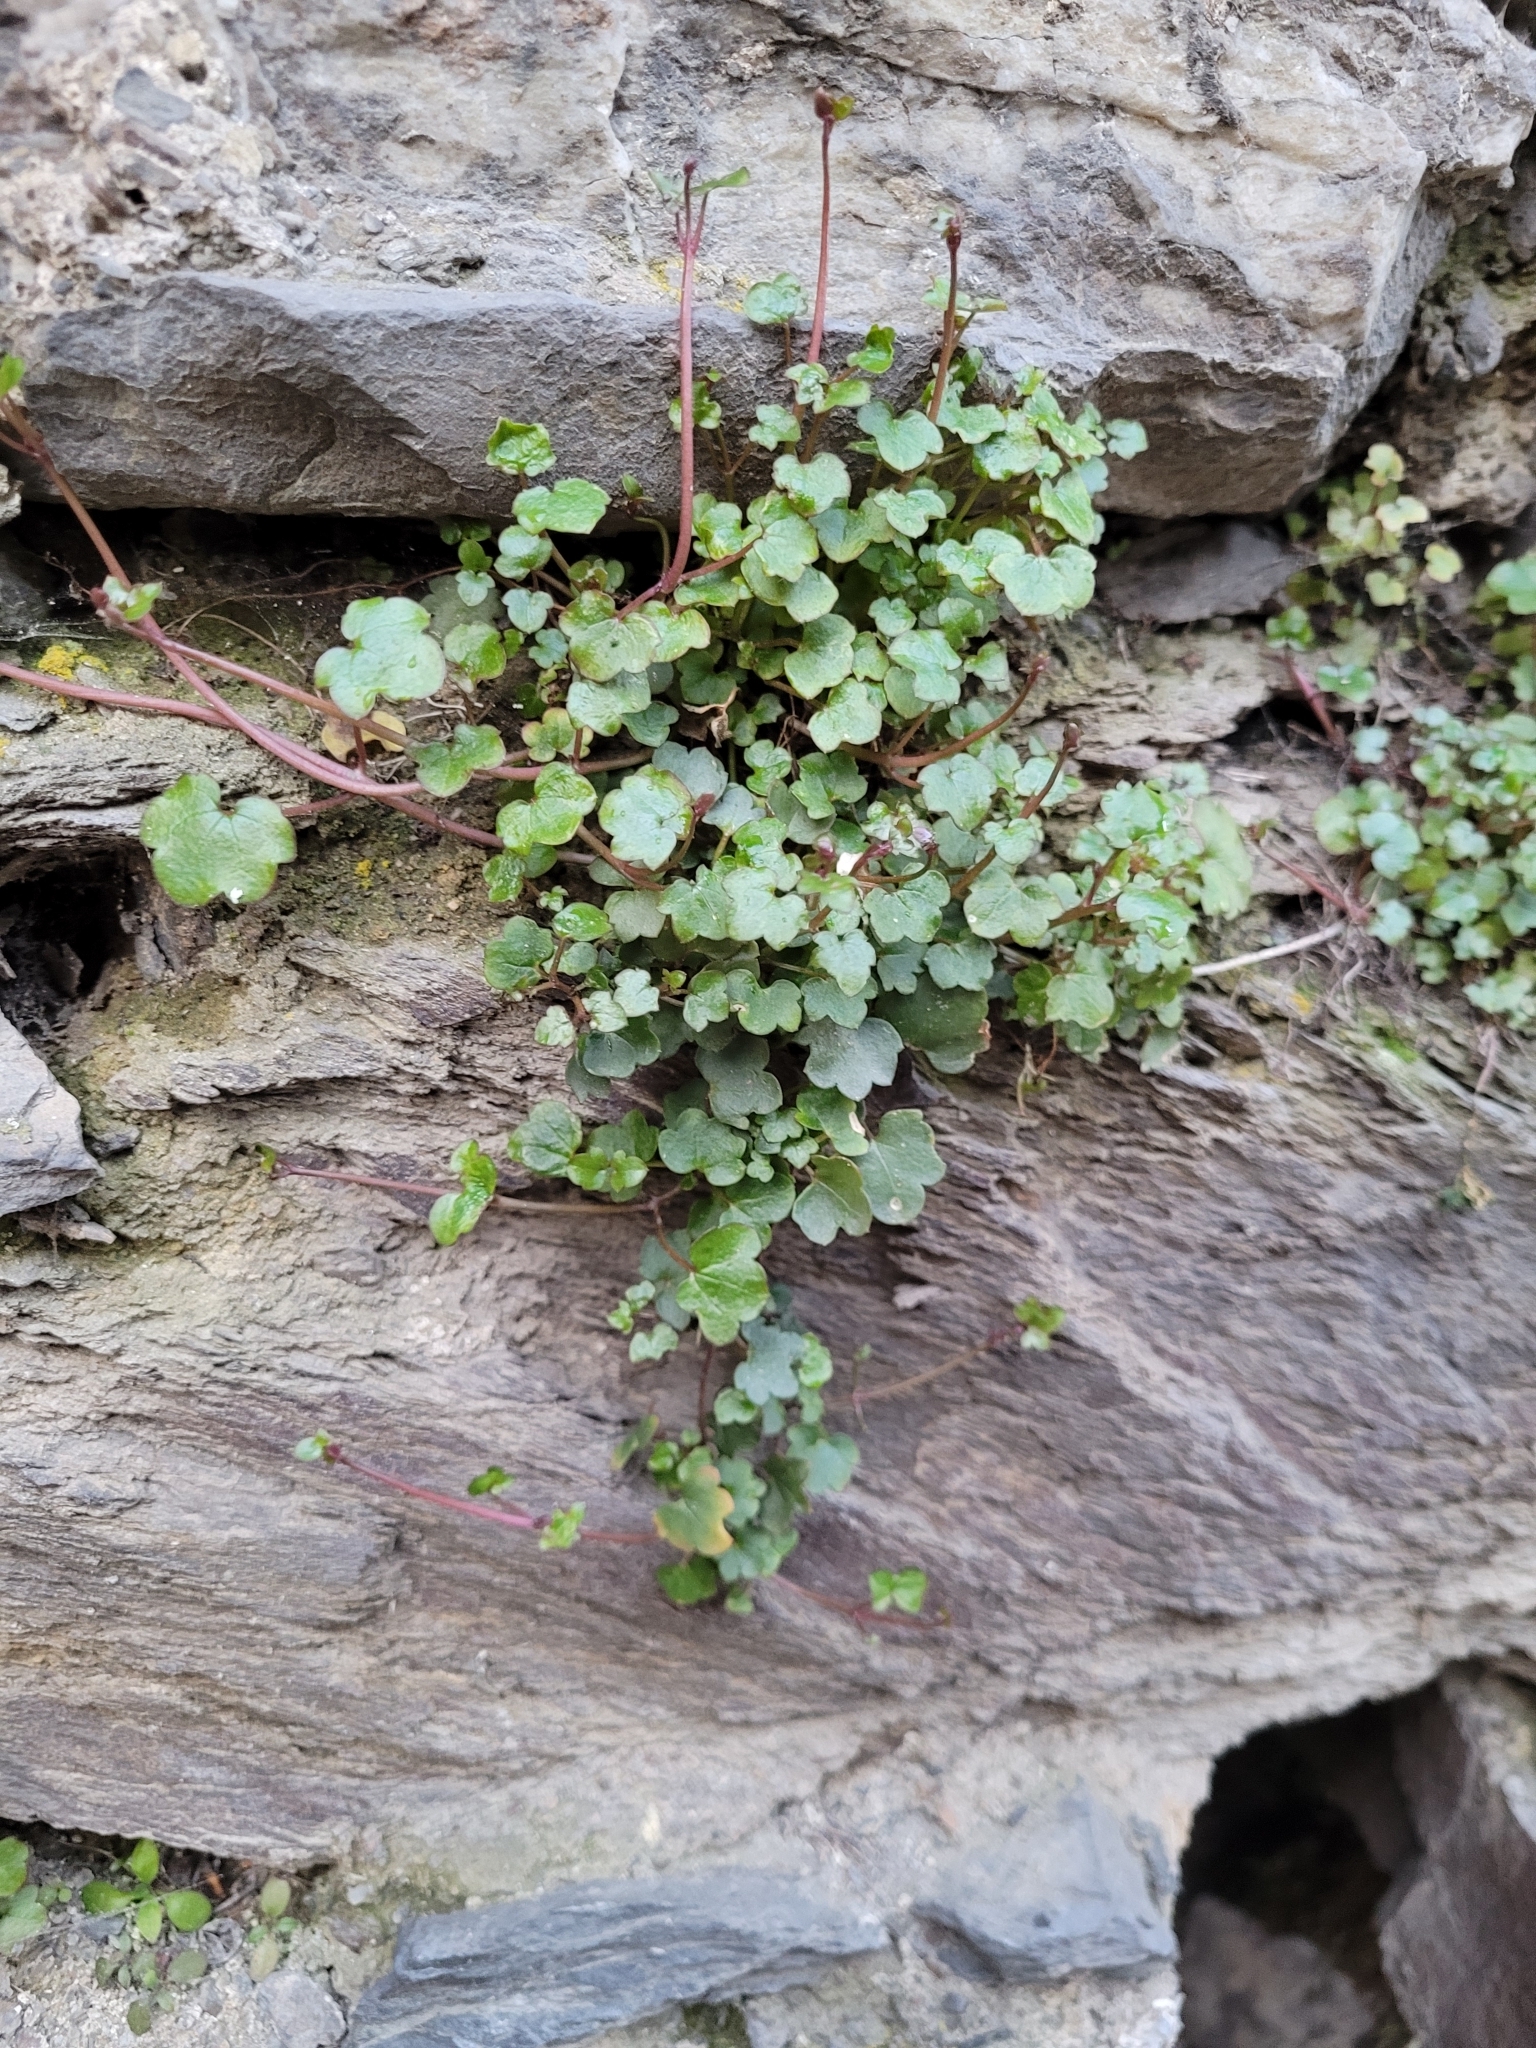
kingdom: Plantae
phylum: Tracheophyta
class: Magnoliopsida
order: Lamiales
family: Plantaginaceae
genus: Cymbalaria
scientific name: Cymbalaria muralis
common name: Ivy-leaved toadflax
